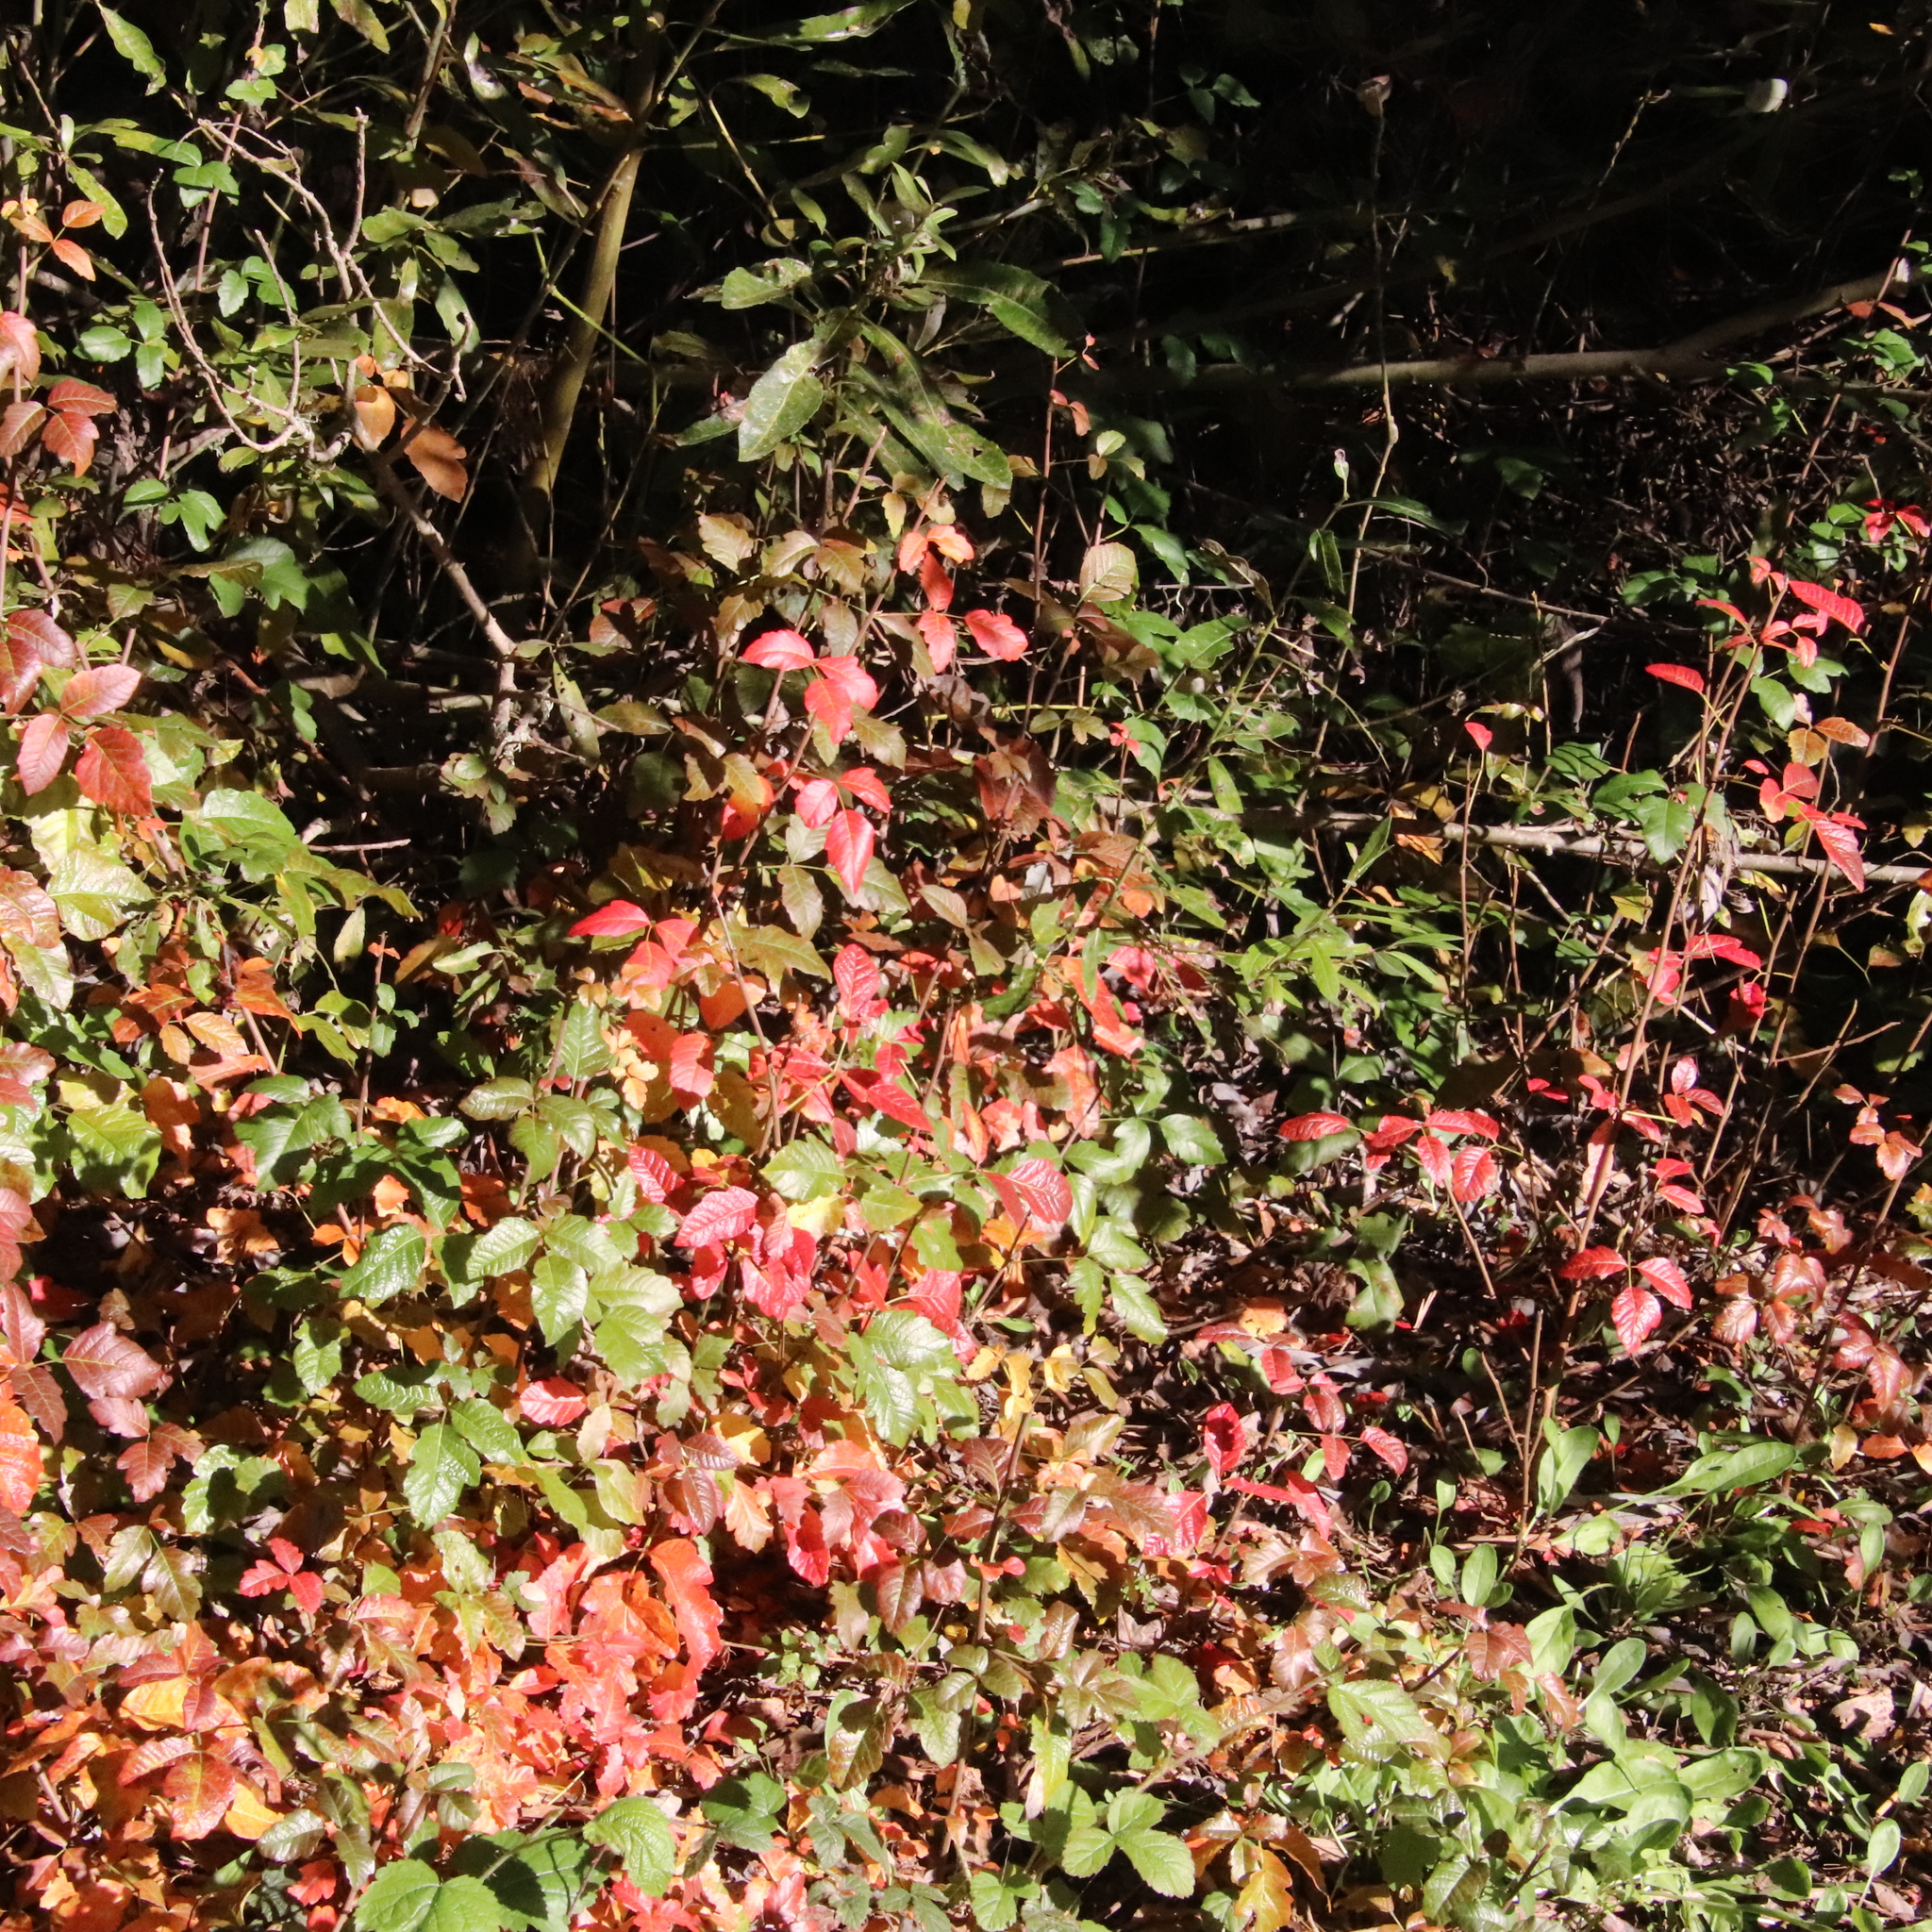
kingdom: Plantae
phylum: Tracheophyta
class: Magnoliopsida
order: Sapindales
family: Anacardiaceae
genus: Toxicodendron
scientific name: Toxicodendron diversilobum
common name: Pacific poison-oak
